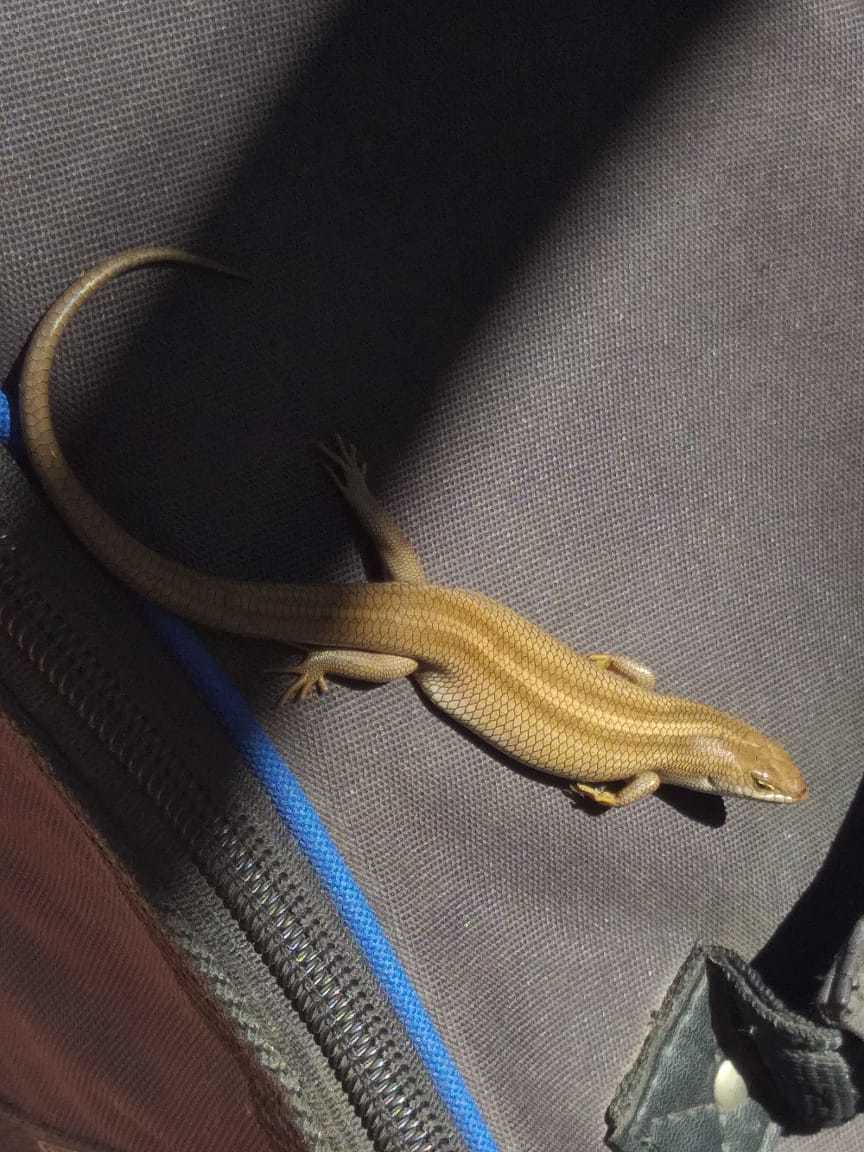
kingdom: Animalia
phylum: Chordata
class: Squamata
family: Scincidae
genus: Trachylepis
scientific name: Trachylepis capensis
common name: Cape skink
